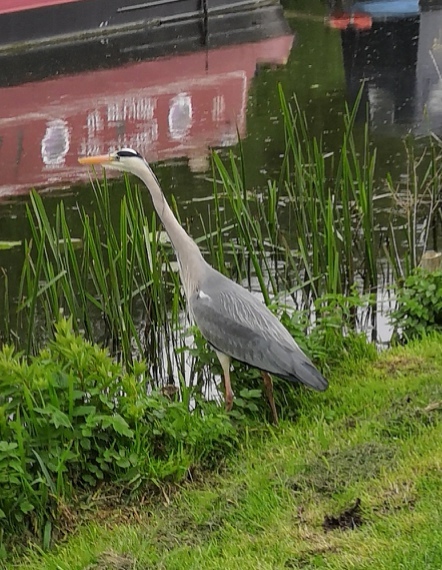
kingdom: Animalia
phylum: Chordata
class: Aves
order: Pelecaniformes
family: Ardeidae
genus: Ardea
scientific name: Ardea cinerea
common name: Grey heron
